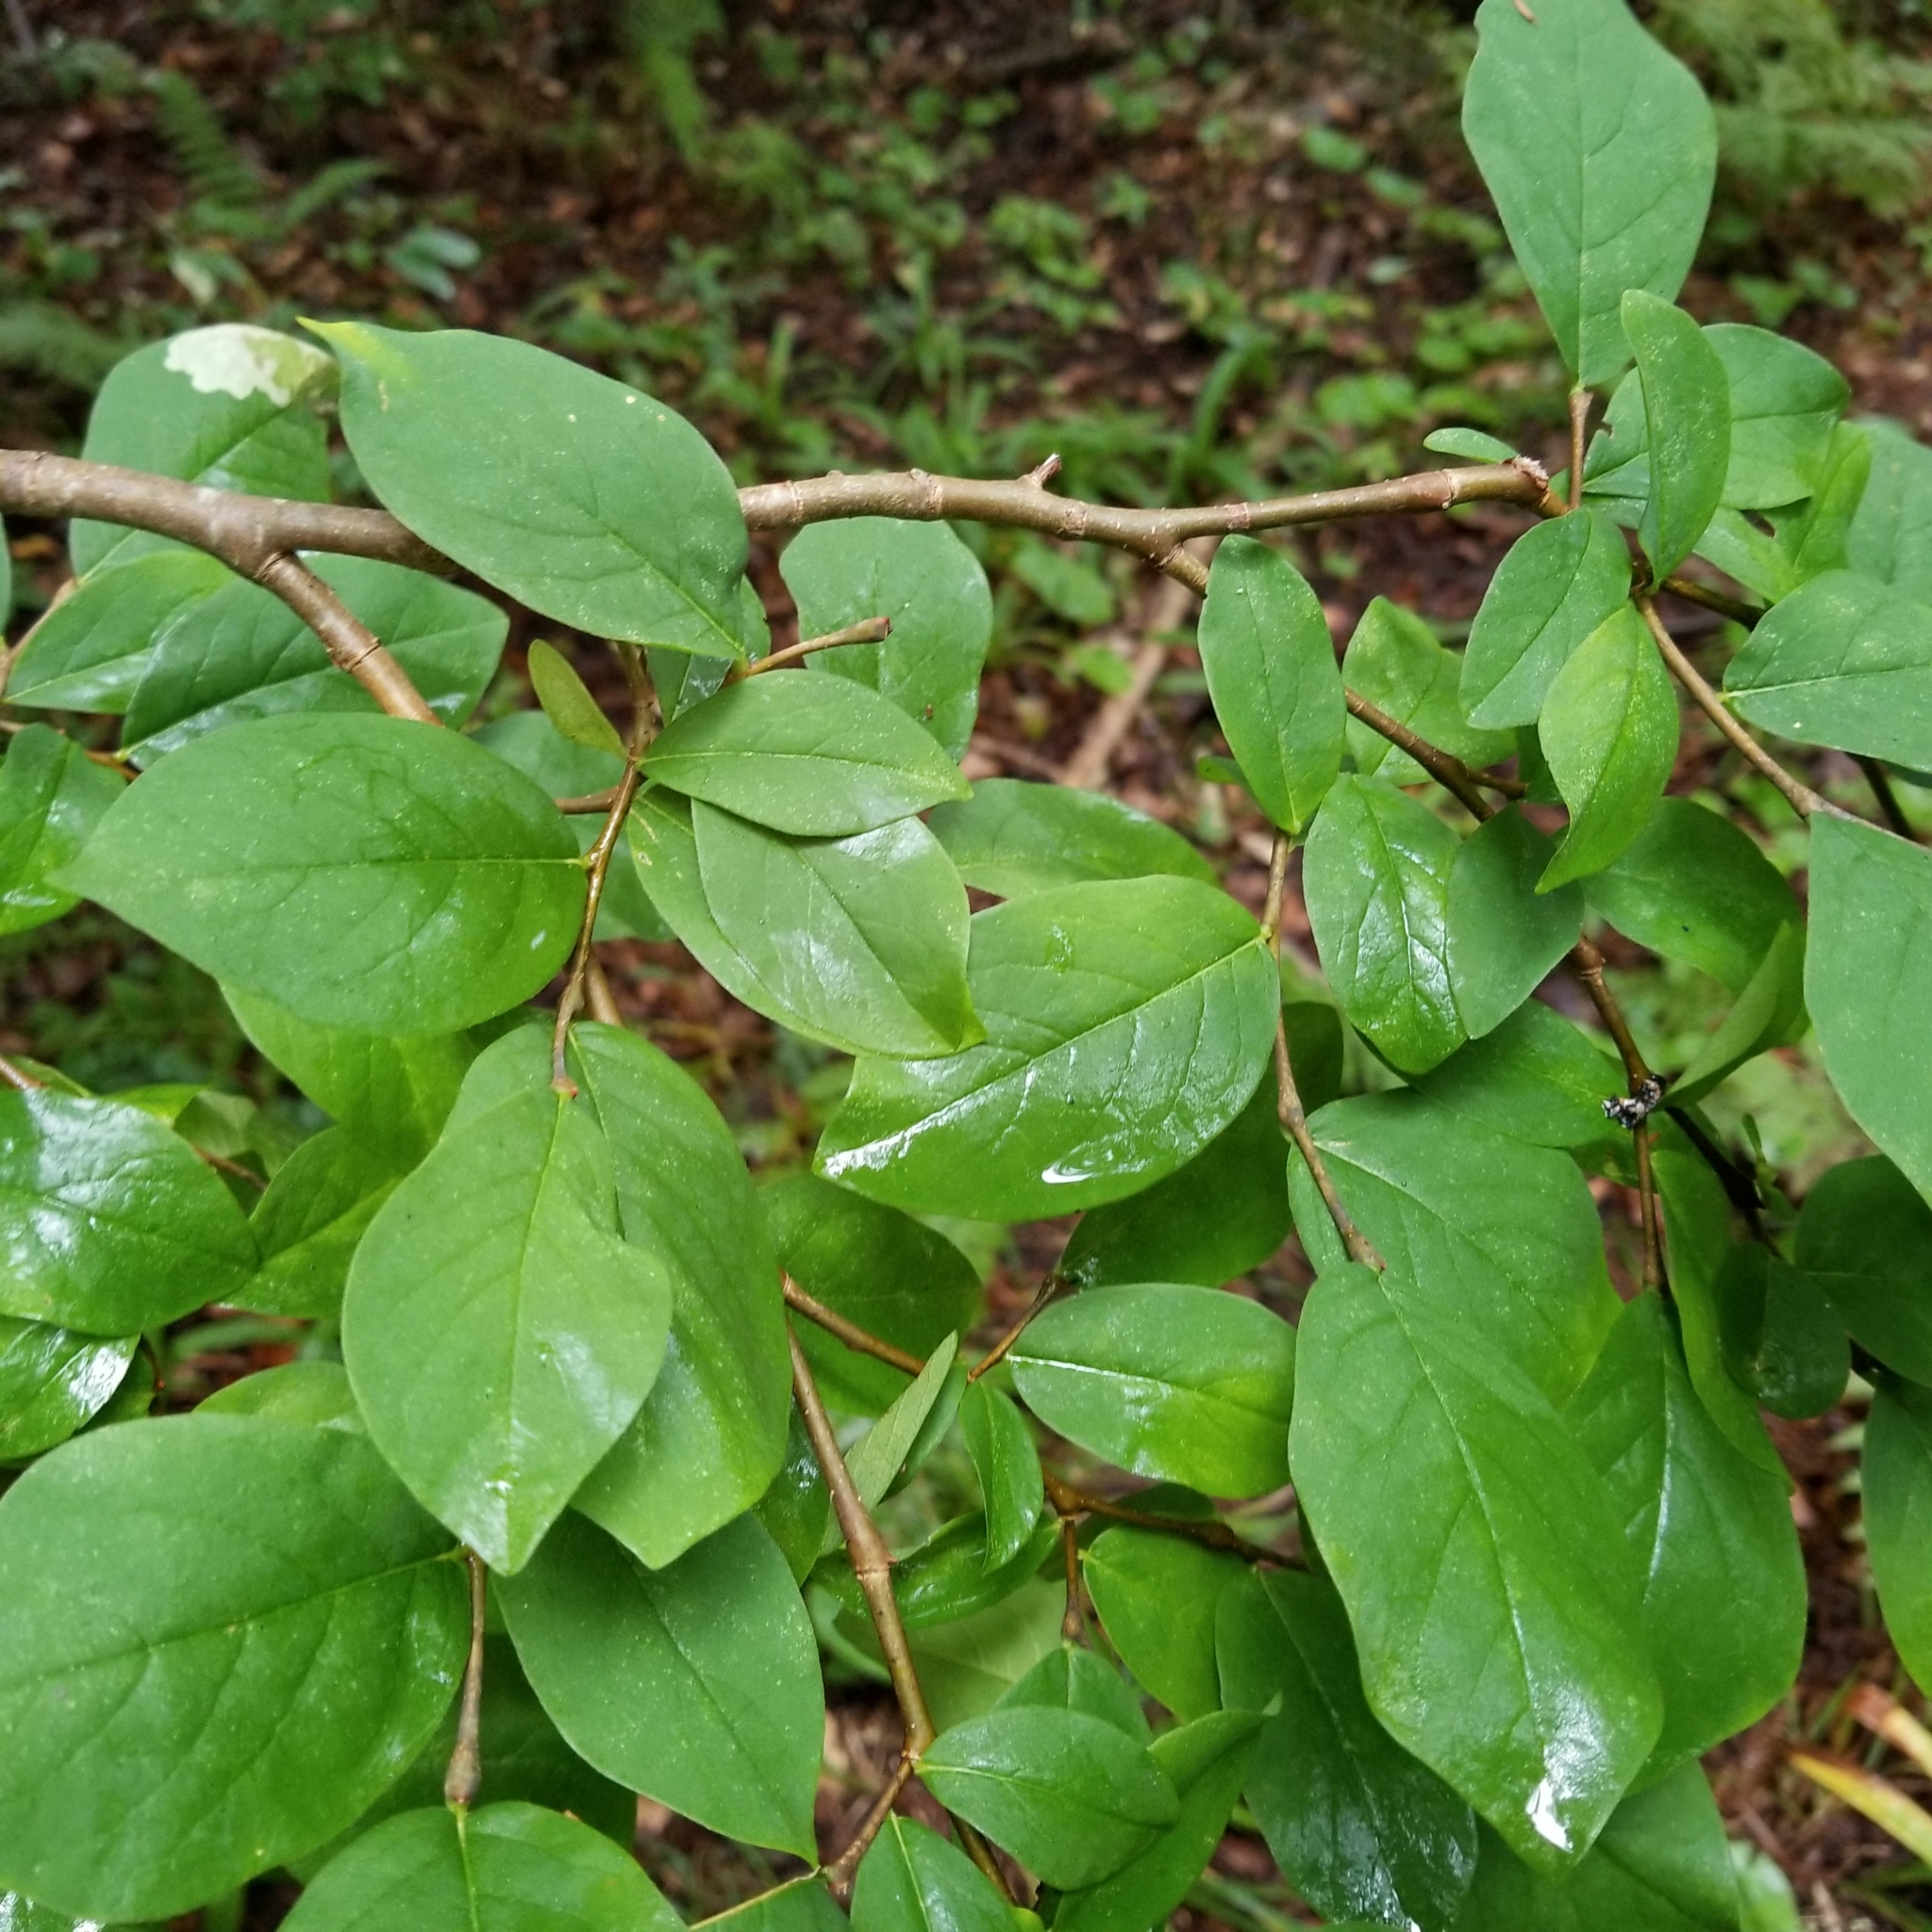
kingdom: Plantae
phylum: Tracheophyta
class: Magnoliopsida
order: Malvales
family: Thymelaeaceae
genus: Dirca
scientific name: Dirca palustris
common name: Leatherwood
